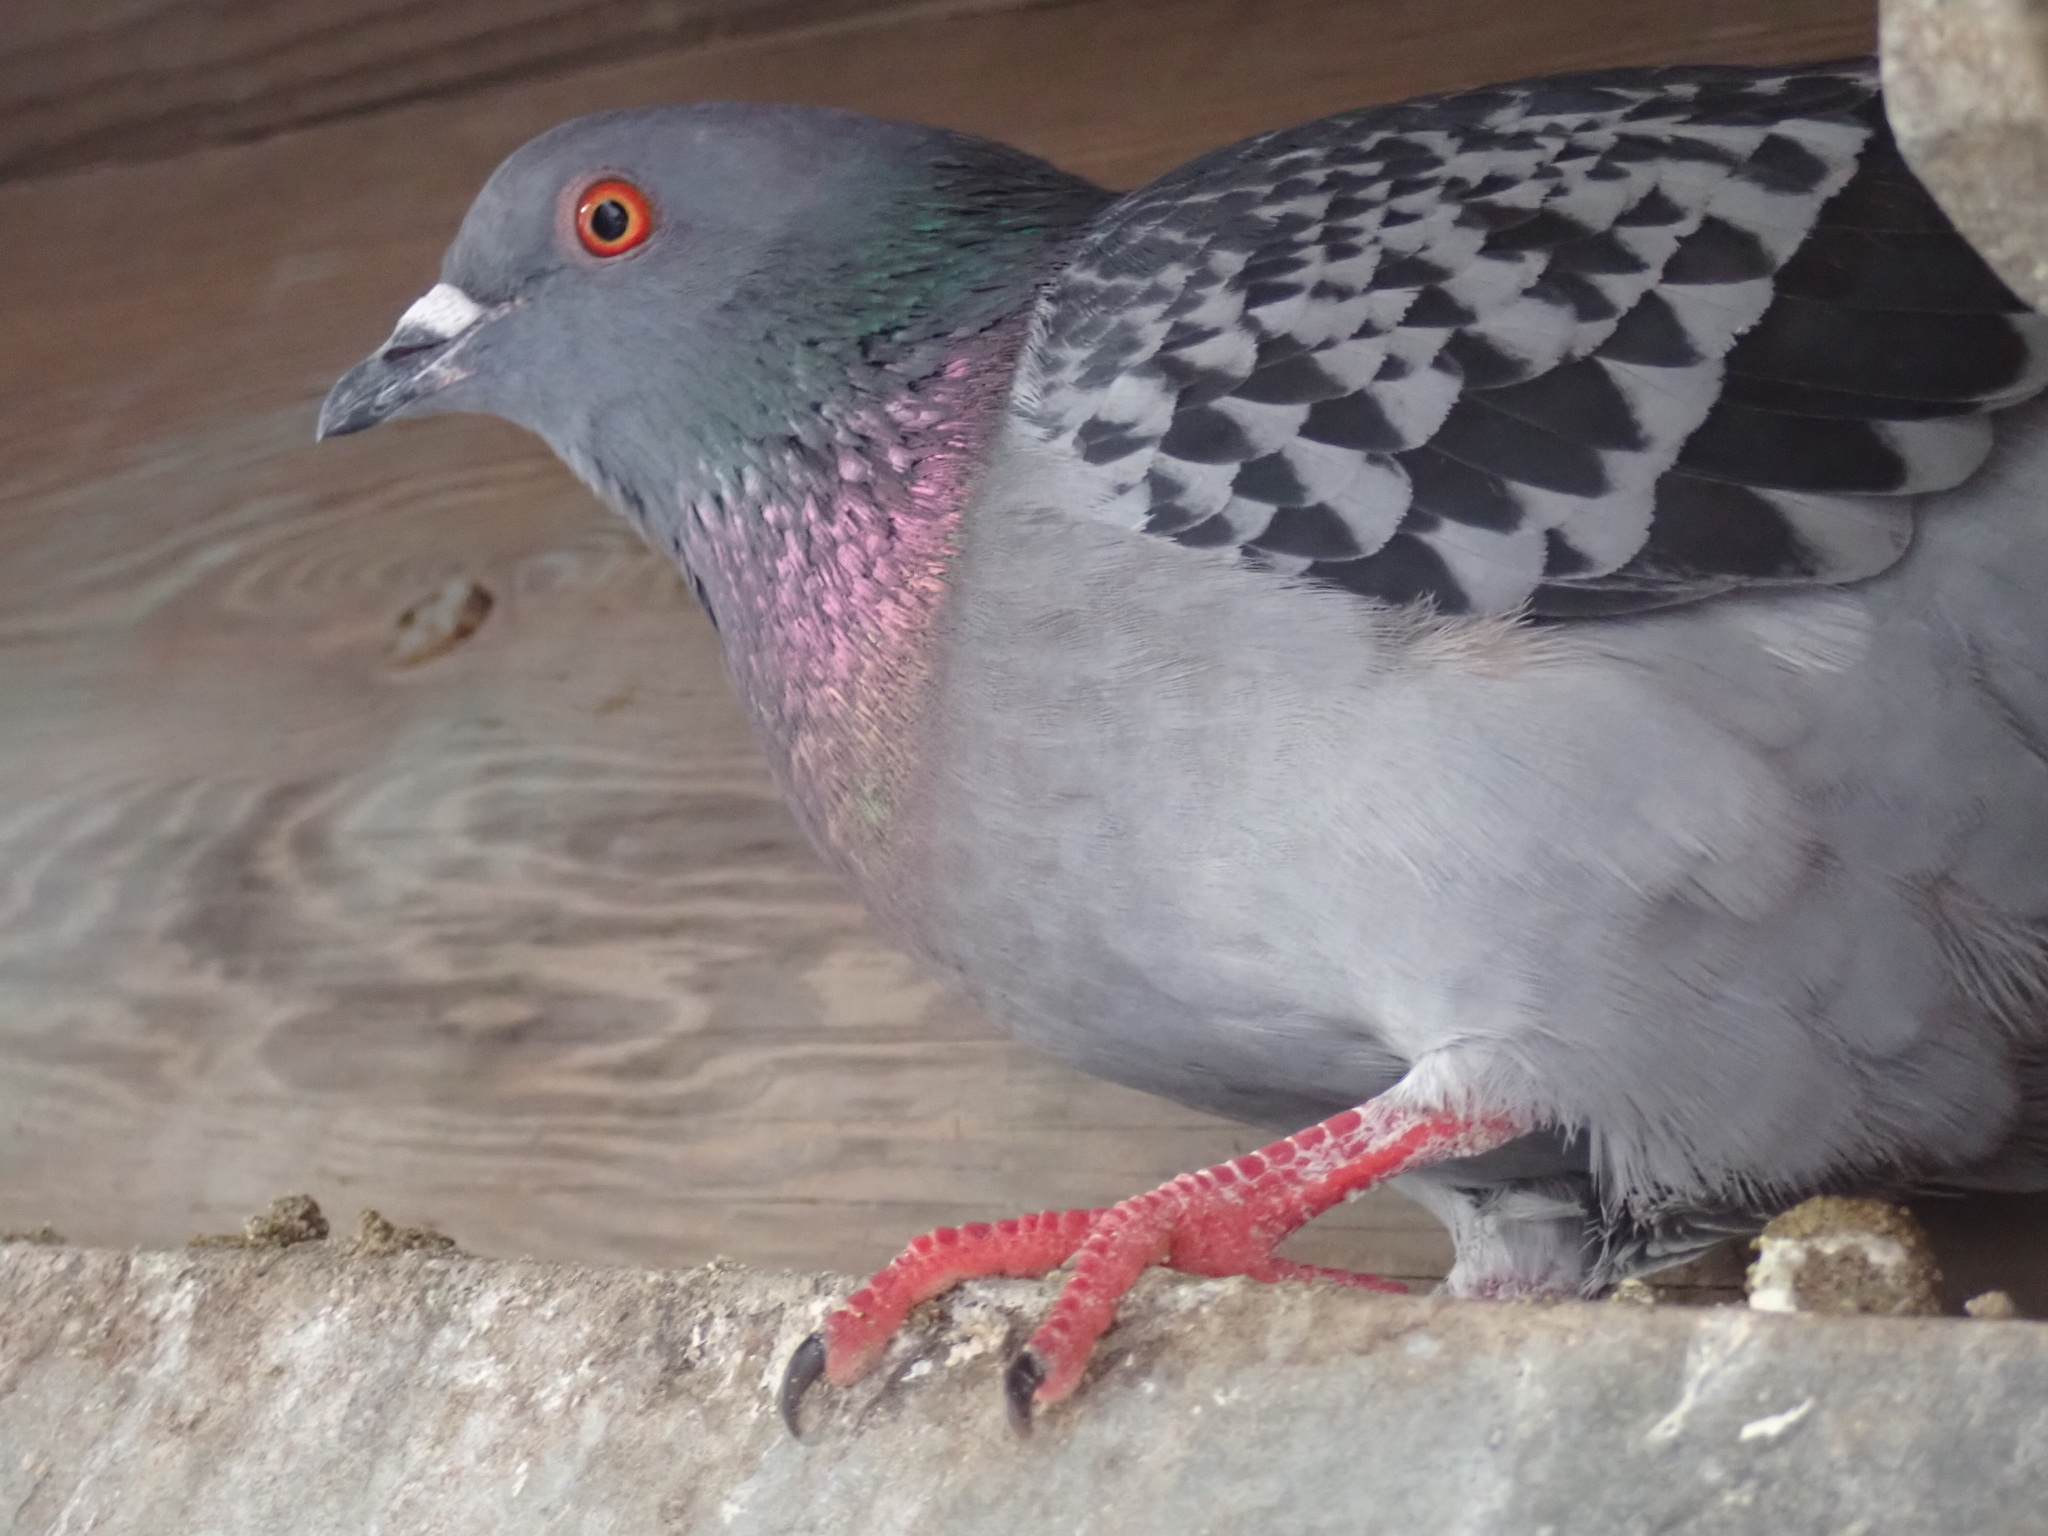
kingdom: Animalia
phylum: Chordata
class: Aves
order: Columbiformes
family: Columbidae
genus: Columba
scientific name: Columba livia
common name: Rock pigeon
